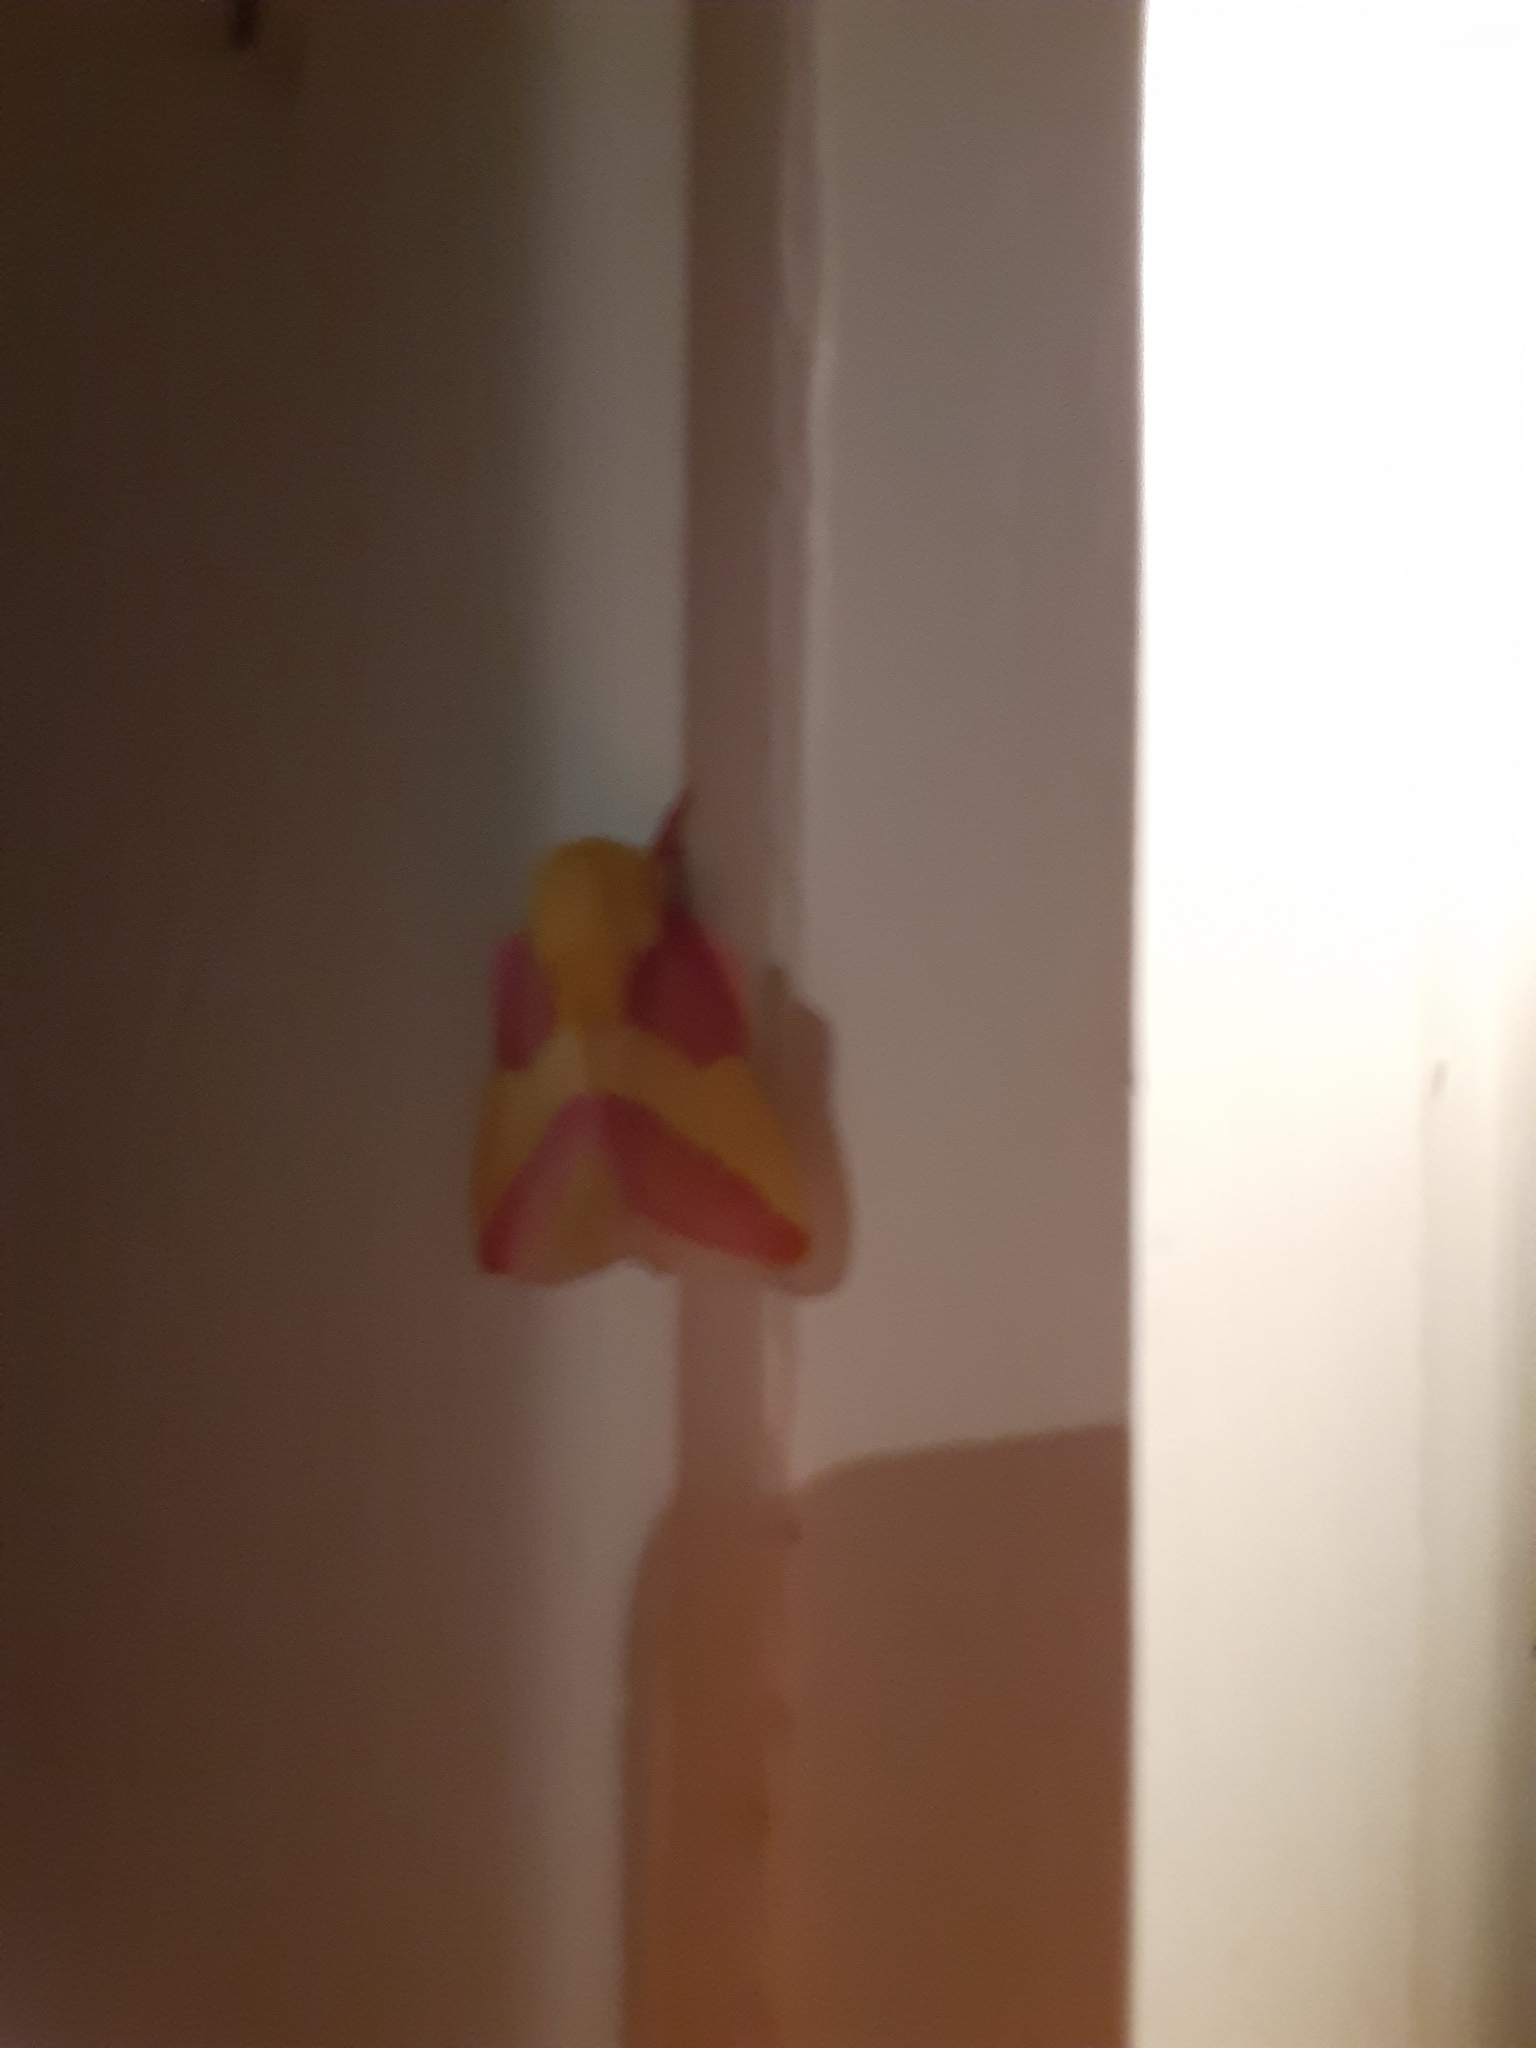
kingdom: Animalia
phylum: Arthropoda
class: Insecta
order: Lepidoptera
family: Saturniidae
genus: Dryocampa
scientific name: Dryocampa rubicunda
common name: Rosy maple moth
